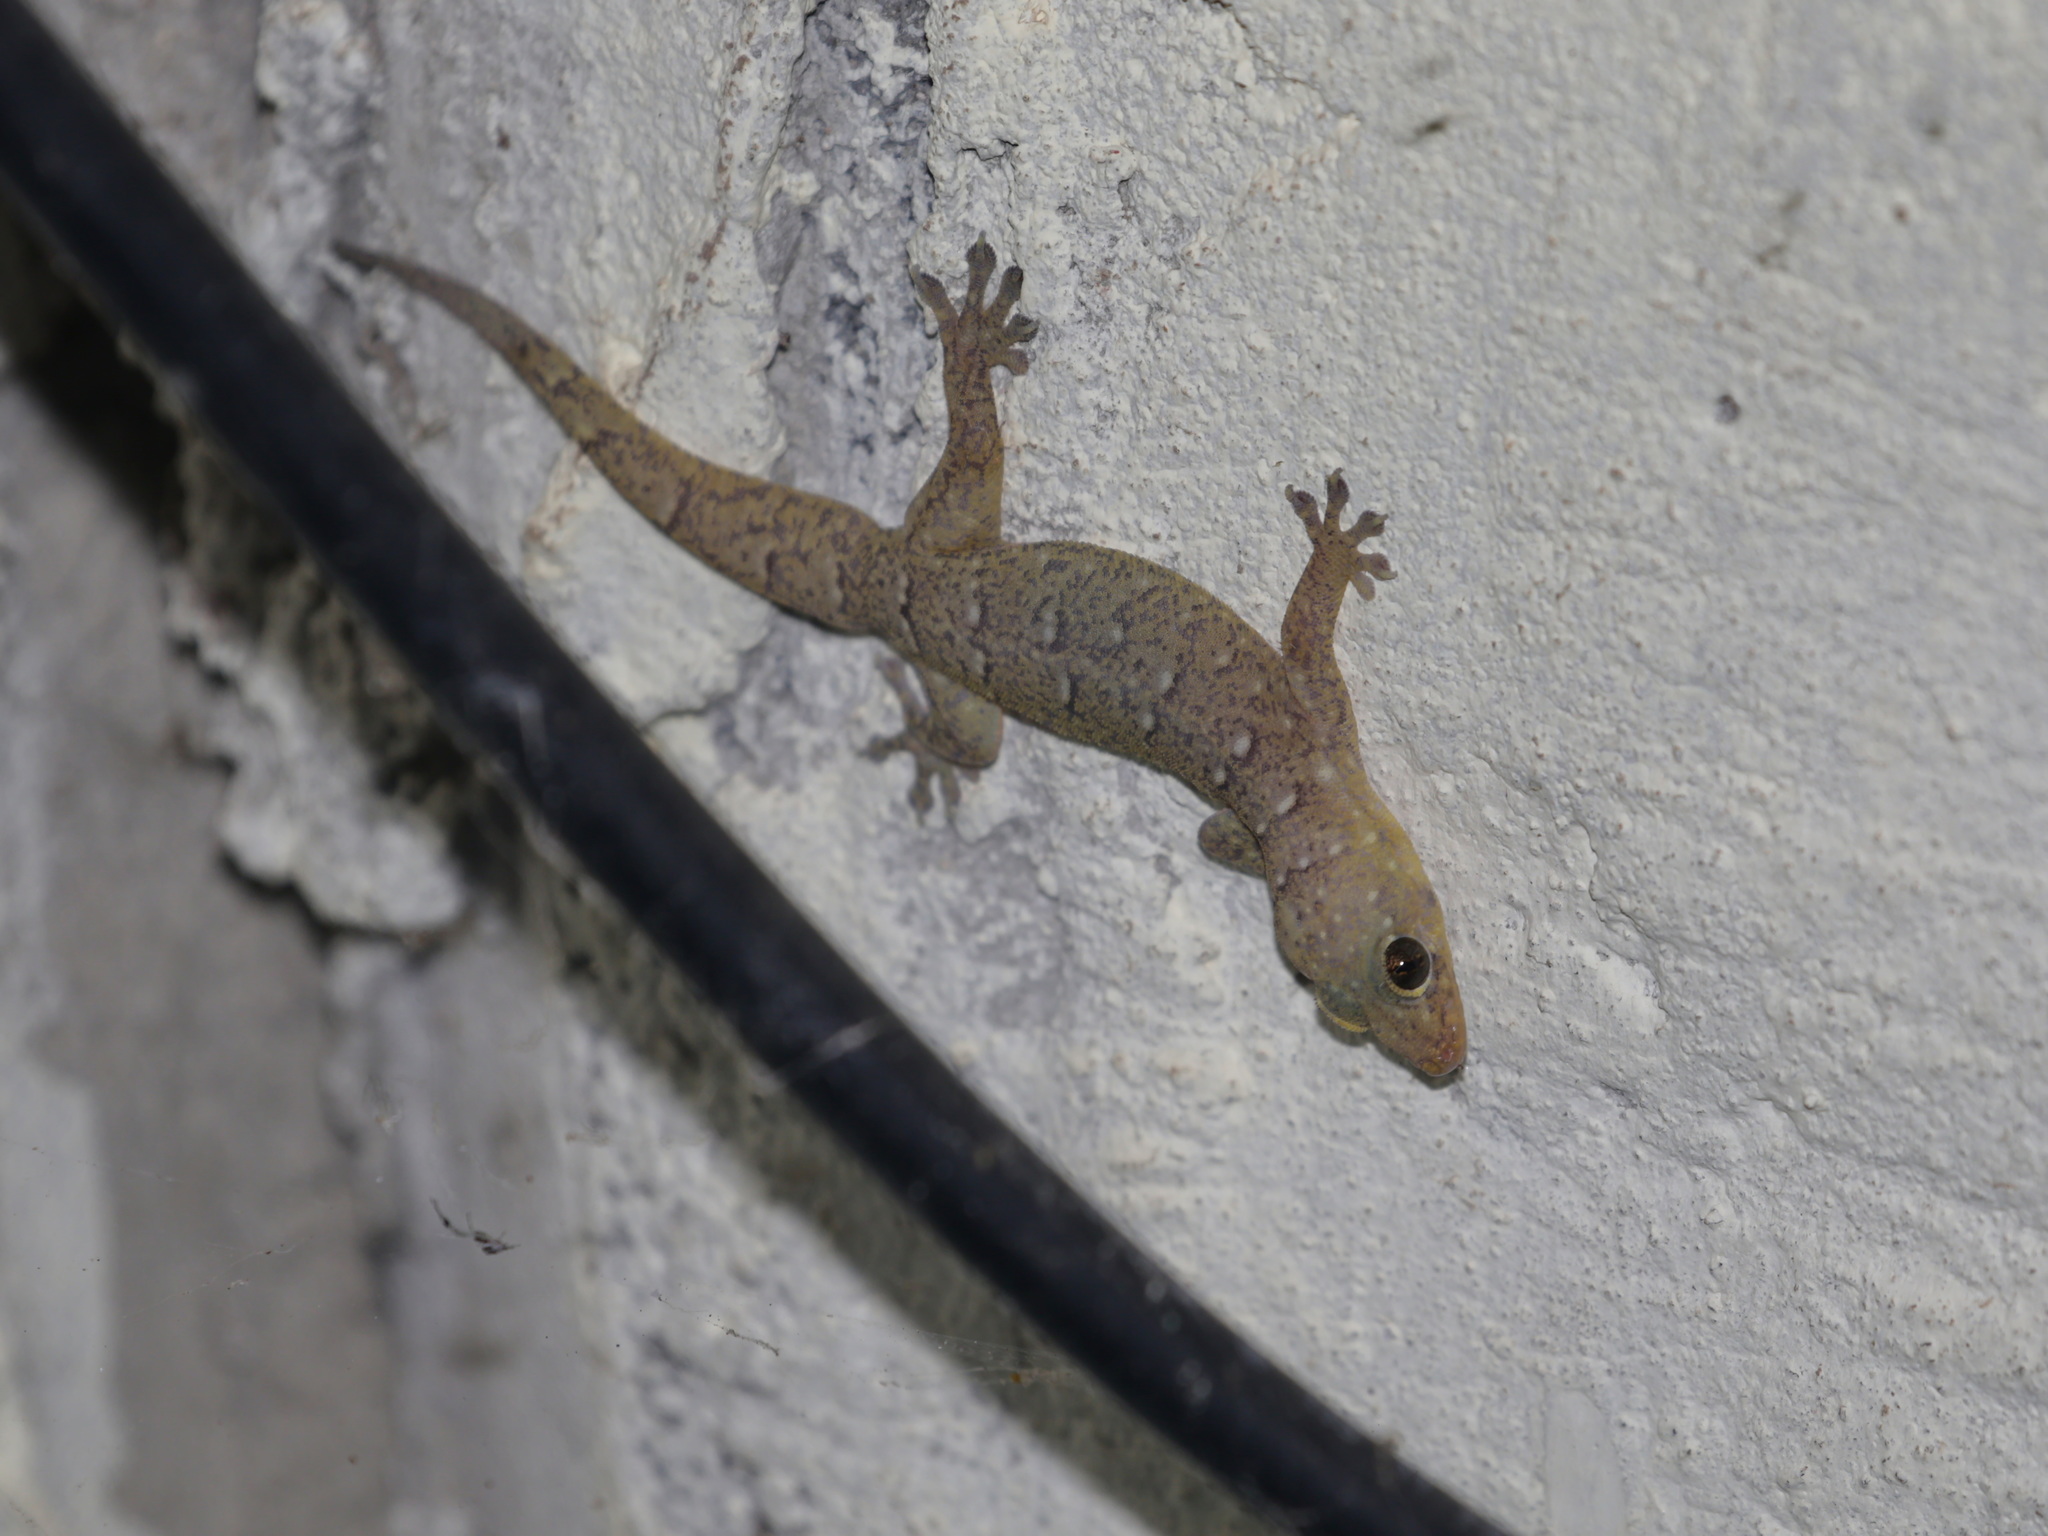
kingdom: Animalia
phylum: Chordata
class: Squamata
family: Gekkonidae
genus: Gehyra
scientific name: Gehyra wongchan
